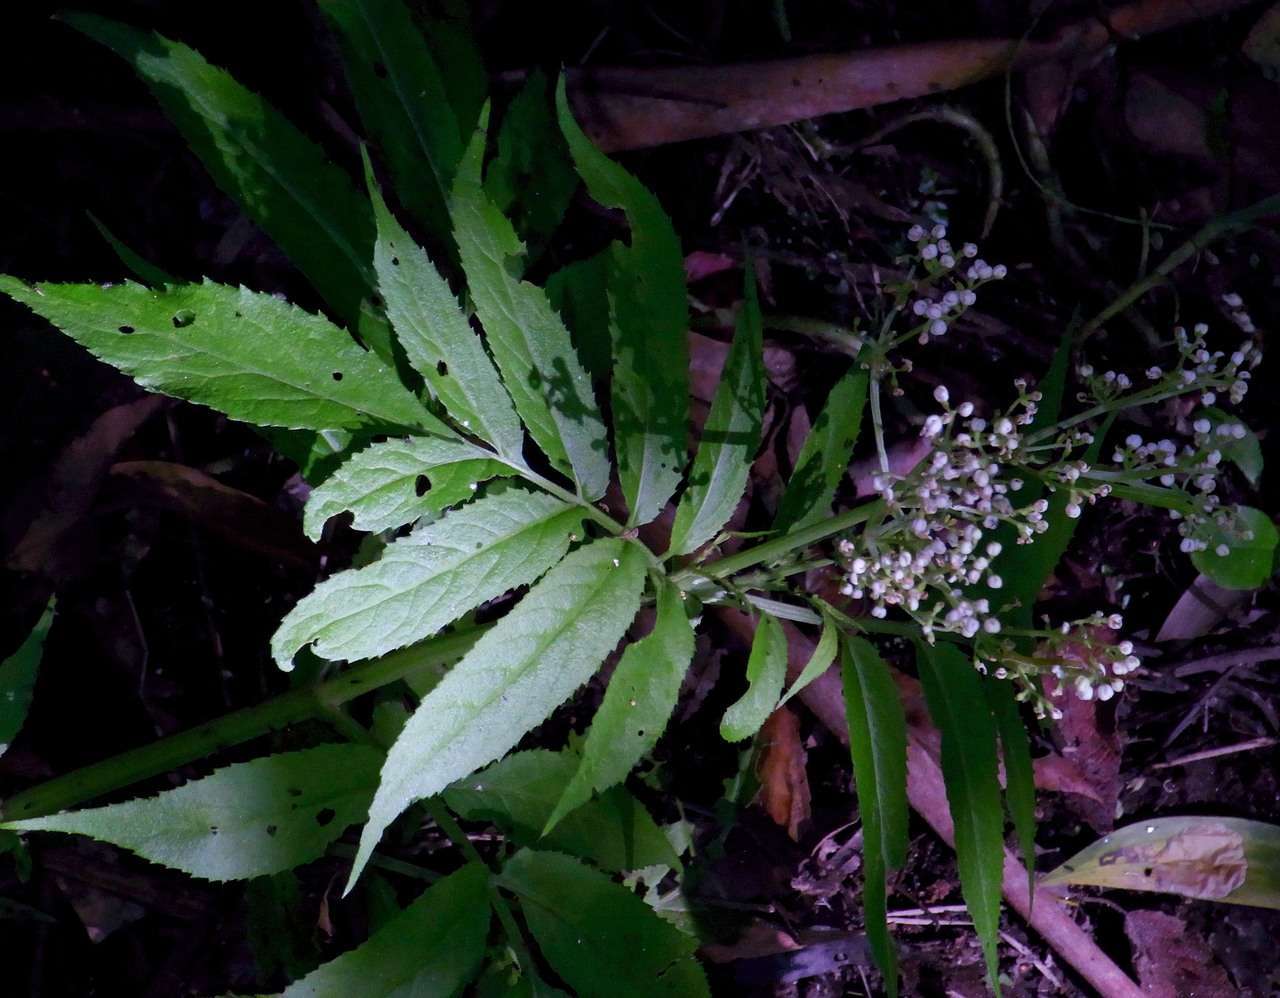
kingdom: Plantae
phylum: Tracheophyta
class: Magnoliopsida
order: Dipsacales
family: Viburnaceae
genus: Sambucus
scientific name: Sambucus gaudichaudiana
